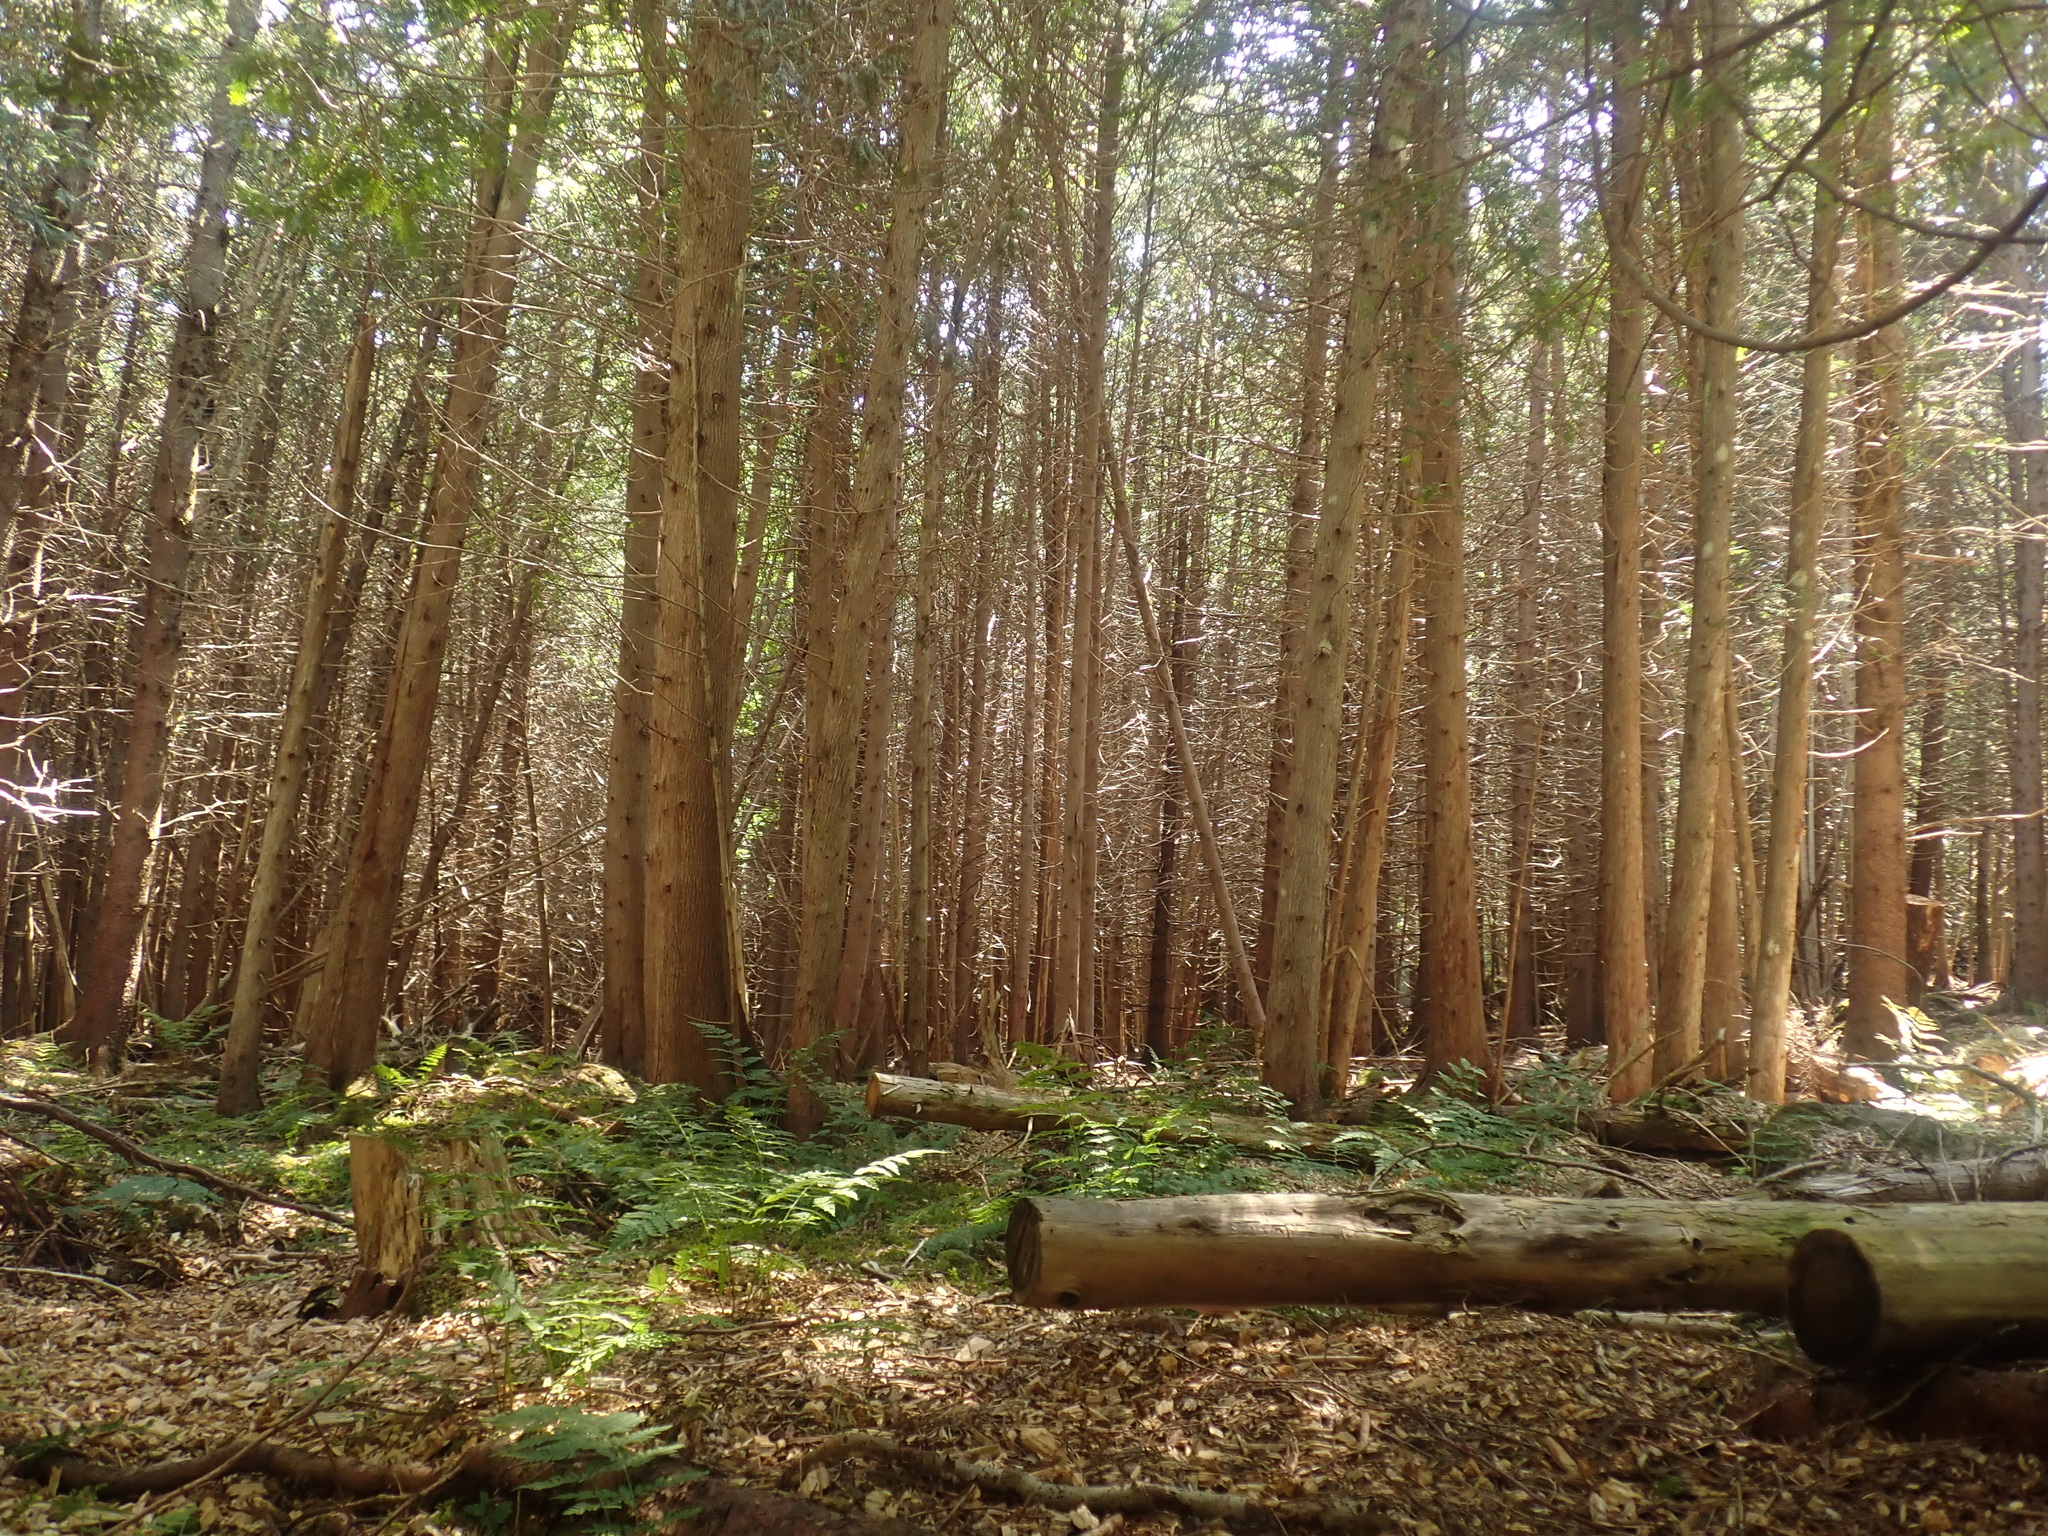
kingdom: Plantae
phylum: Tracheophyta
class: Pinopsida
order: Pinales
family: Cupressaceae
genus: Thuja
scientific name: Thuja occidentalis
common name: Northern white-cedar
